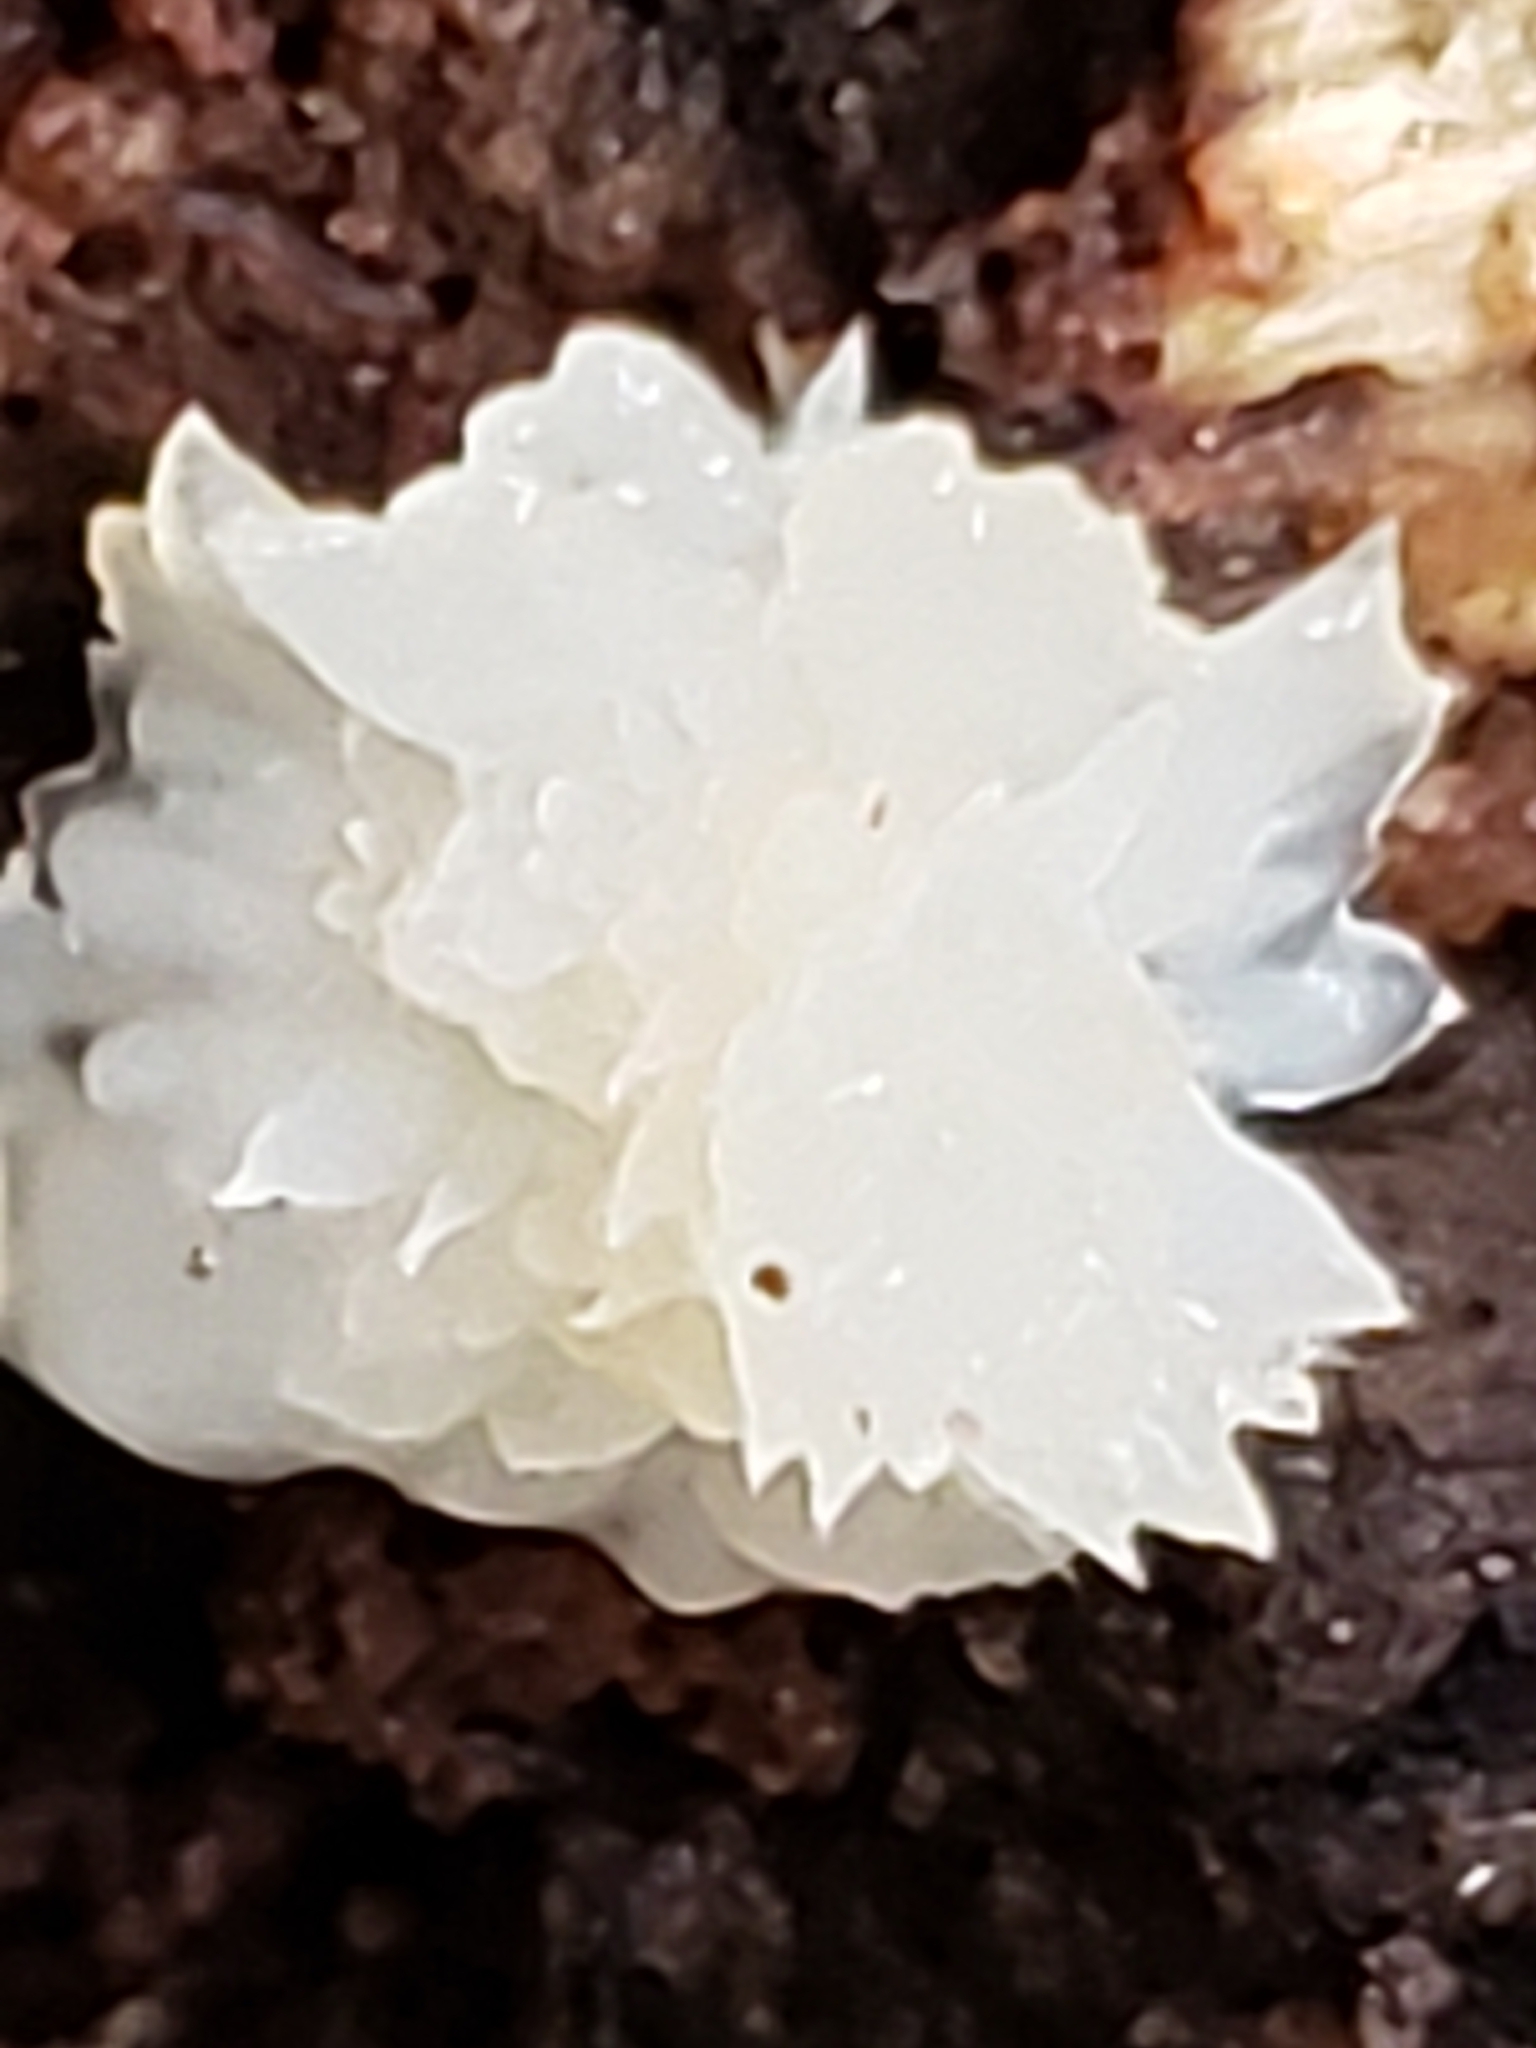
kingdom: Fungi
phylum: Basidiomycota
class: Tremellomycetes
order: Tremellales
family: Tremellaceae
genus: Tremella
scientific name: Tremella fuciformis
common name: Snow fungus
